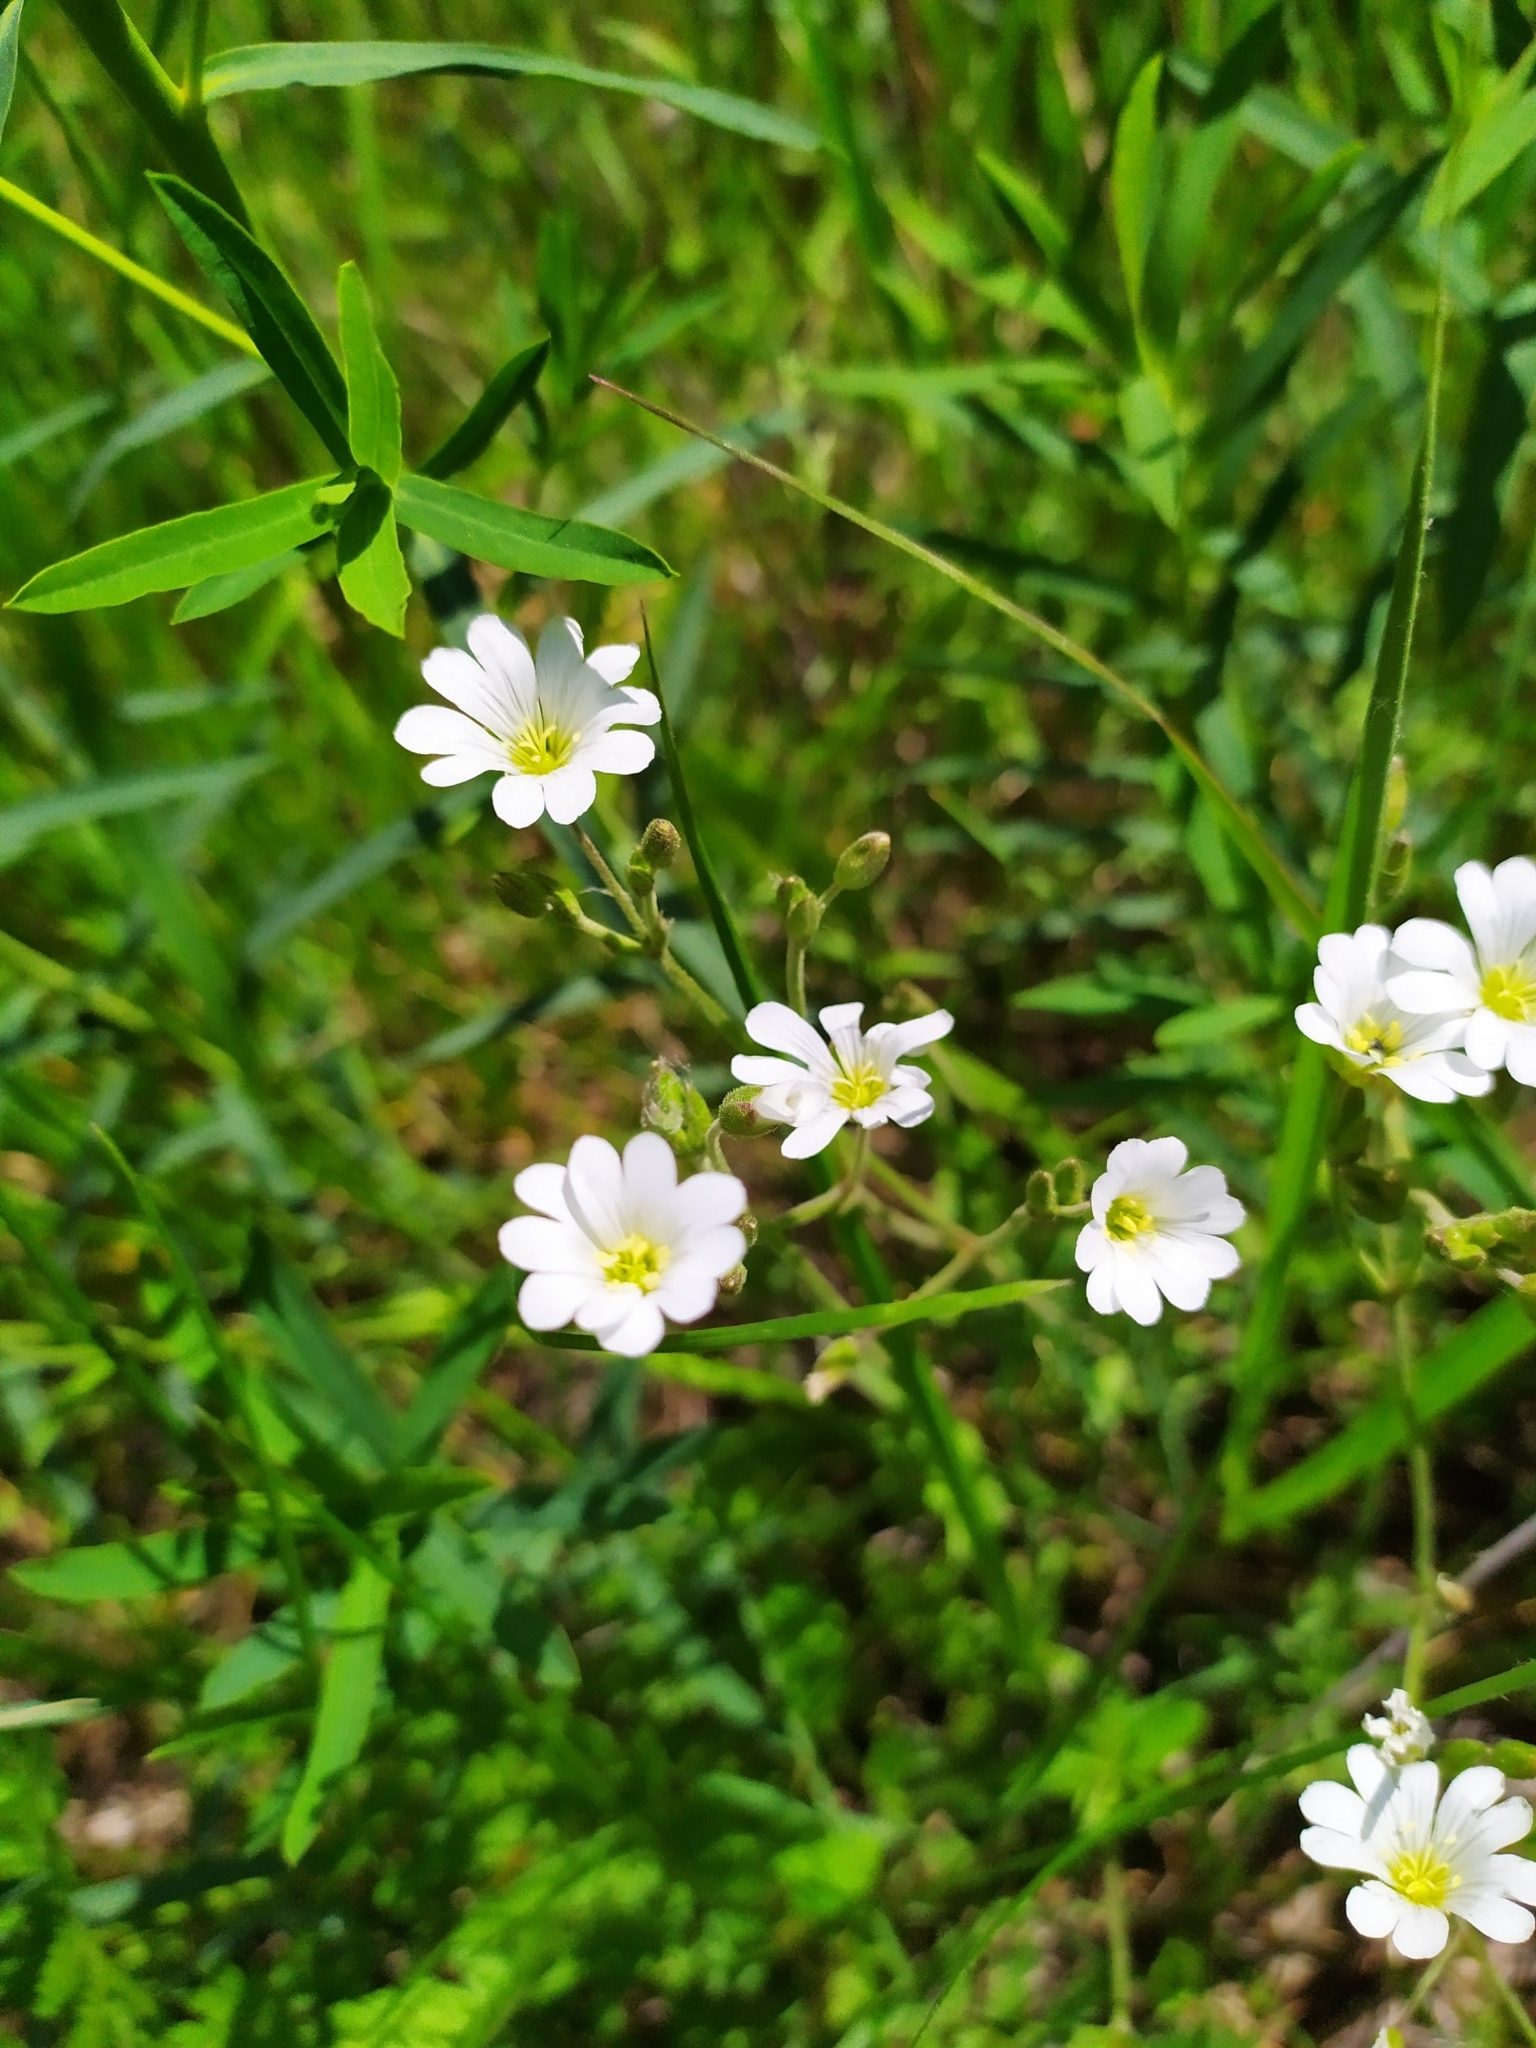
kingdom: Plantae
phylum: Tracheophyta
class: Magnoliopsida
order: Caryophyllales
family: Caryophyllaceae
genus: Cerastium
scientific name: Cerastium arvense
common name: Field mouse-ear
